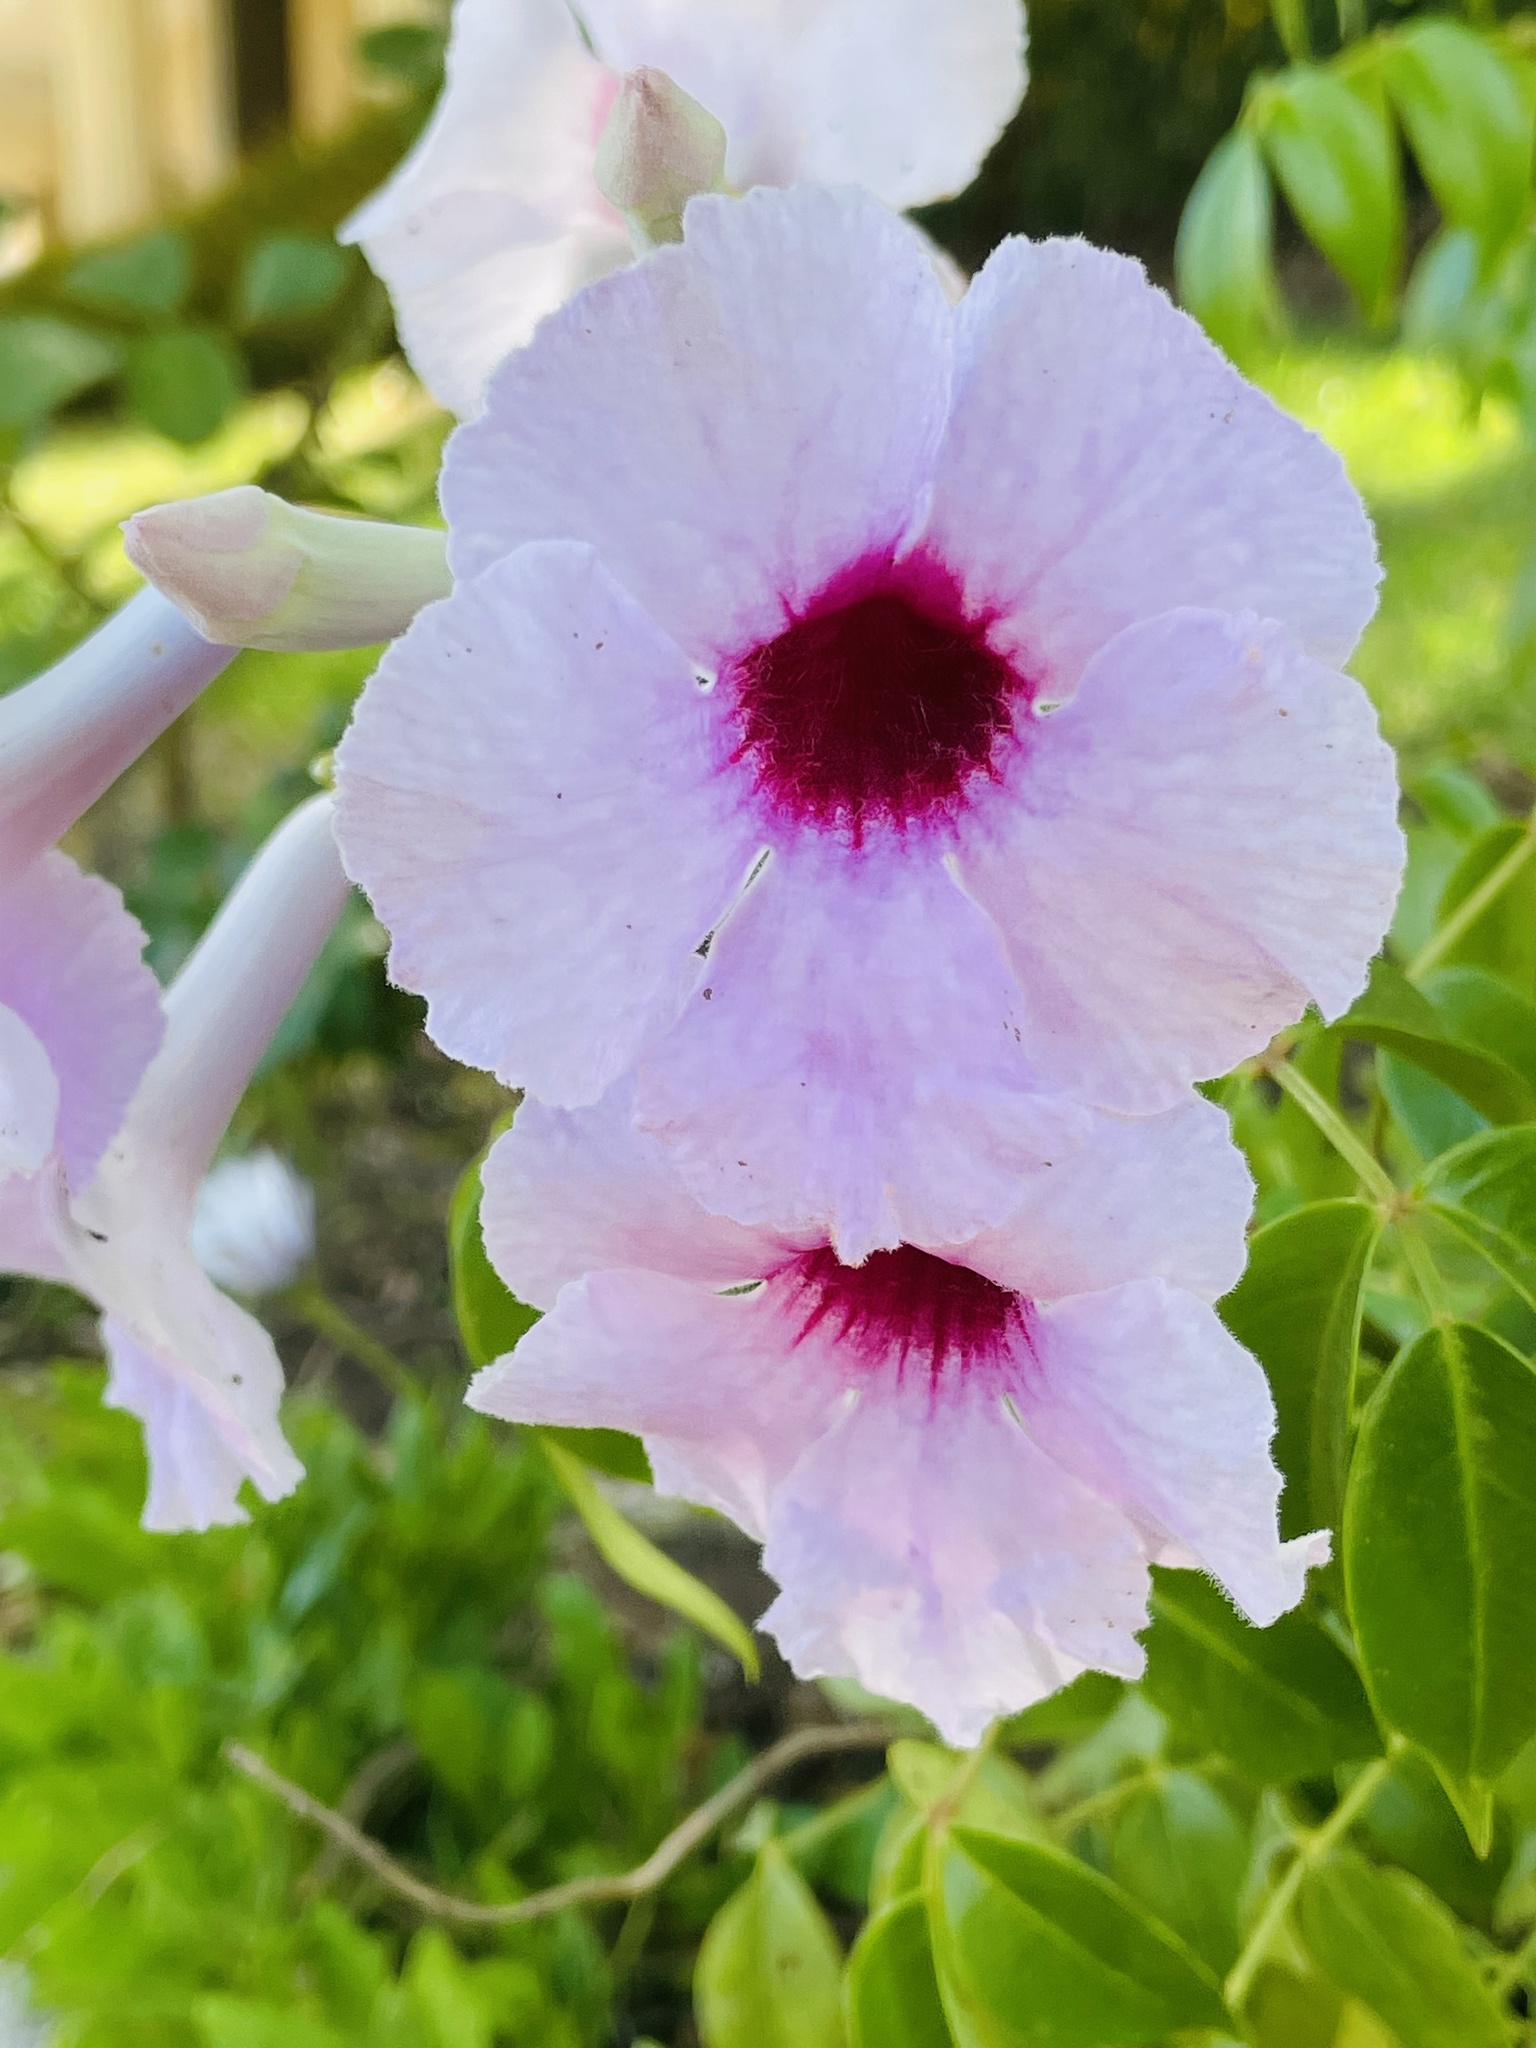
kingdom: Plantae
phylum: Tracheophyta
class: Magnoliopsida
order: Lamiales
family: Bignoniaceae
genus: Pandorea
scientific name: Pandorea jasminoides
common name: Bowerplant
